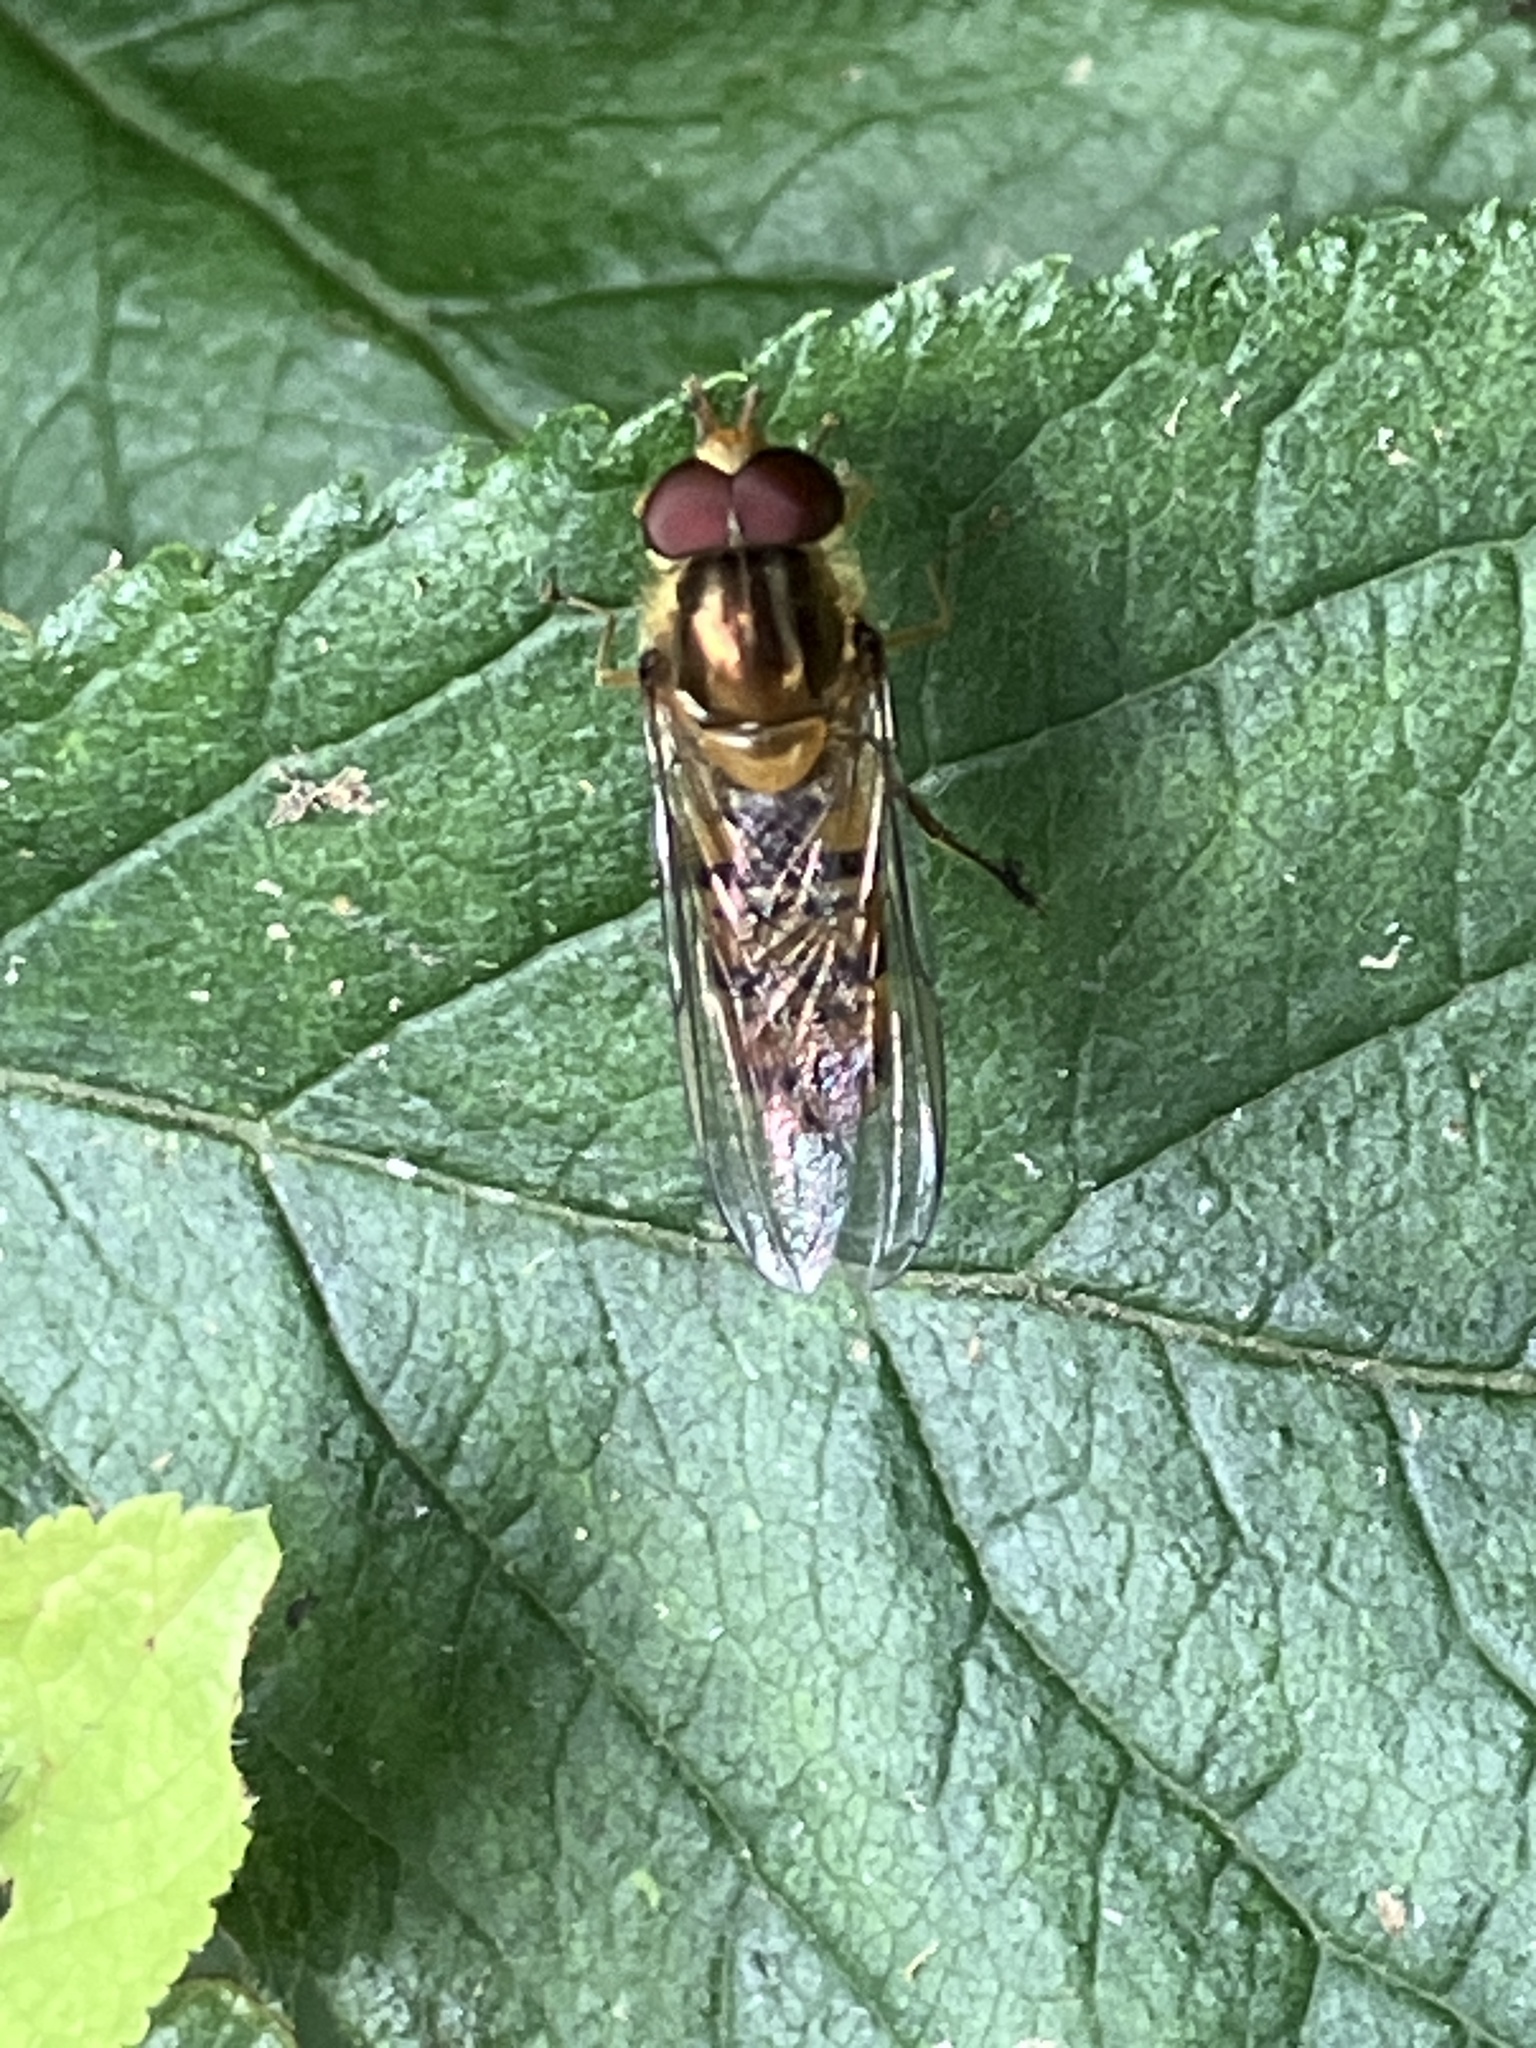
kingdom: Animalia
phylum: Arthropoda
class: Insecta
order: Diptera
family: Syrphidae
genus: Episyrphus
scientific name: Episyrphus balteatus
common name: Marmalade hoverfly
